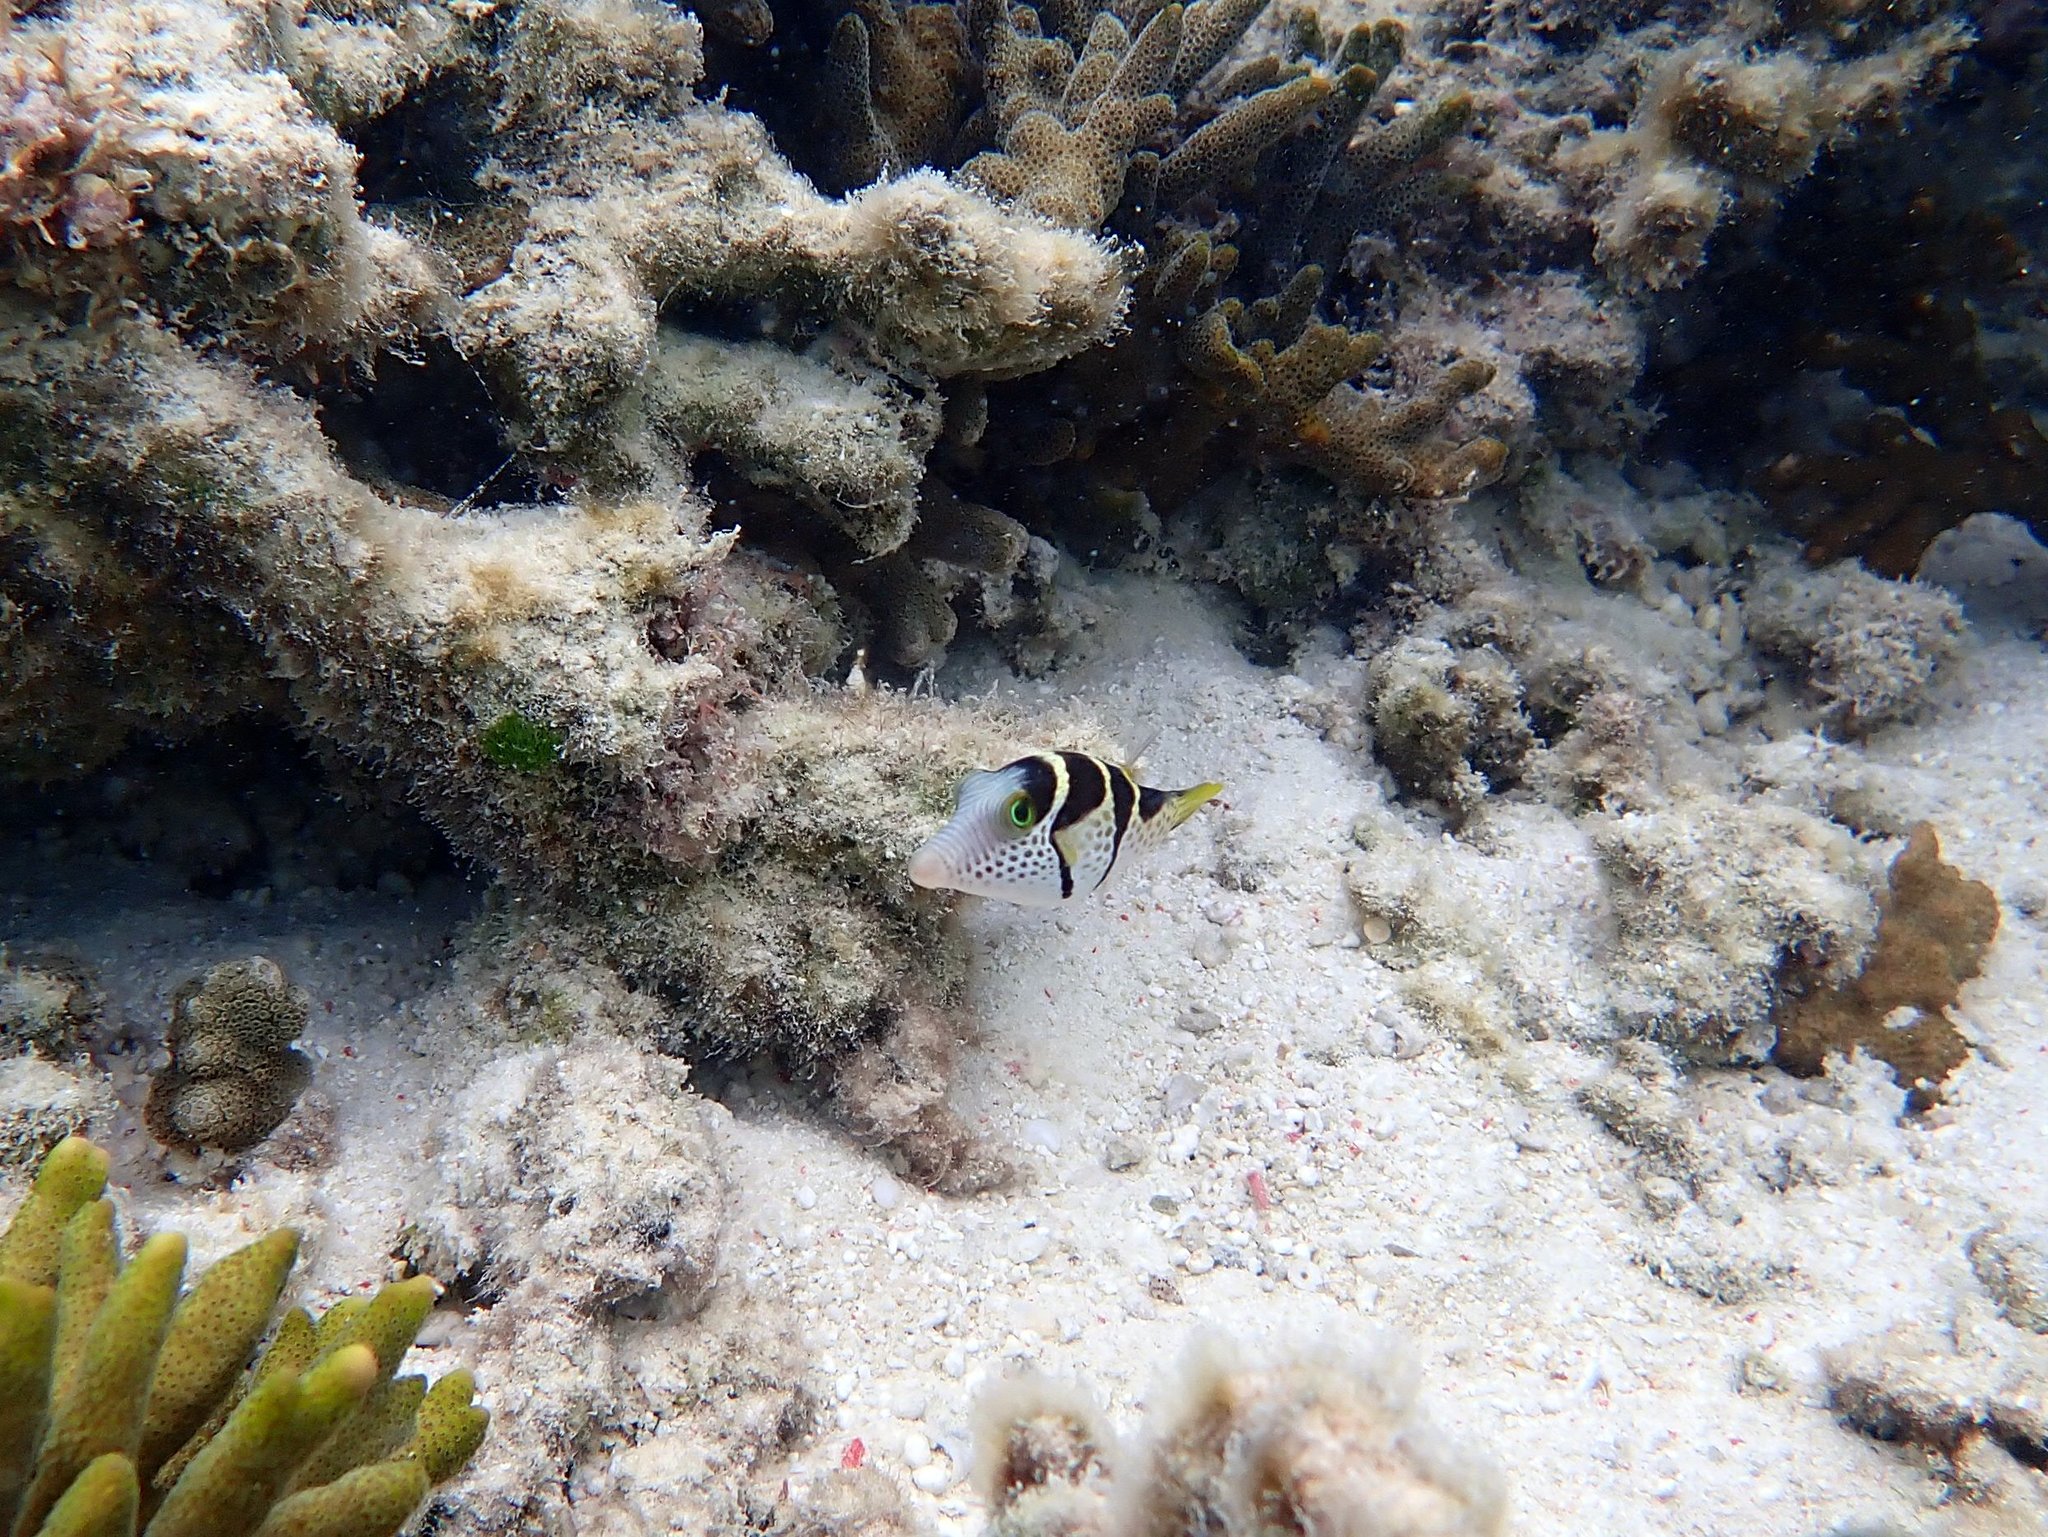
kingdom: Animalia
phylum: Chordata
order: Tetraodontiformes
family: Tetraodontidae
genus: Canthigaster
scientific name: Canthigaster valentini
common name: Banded toby
